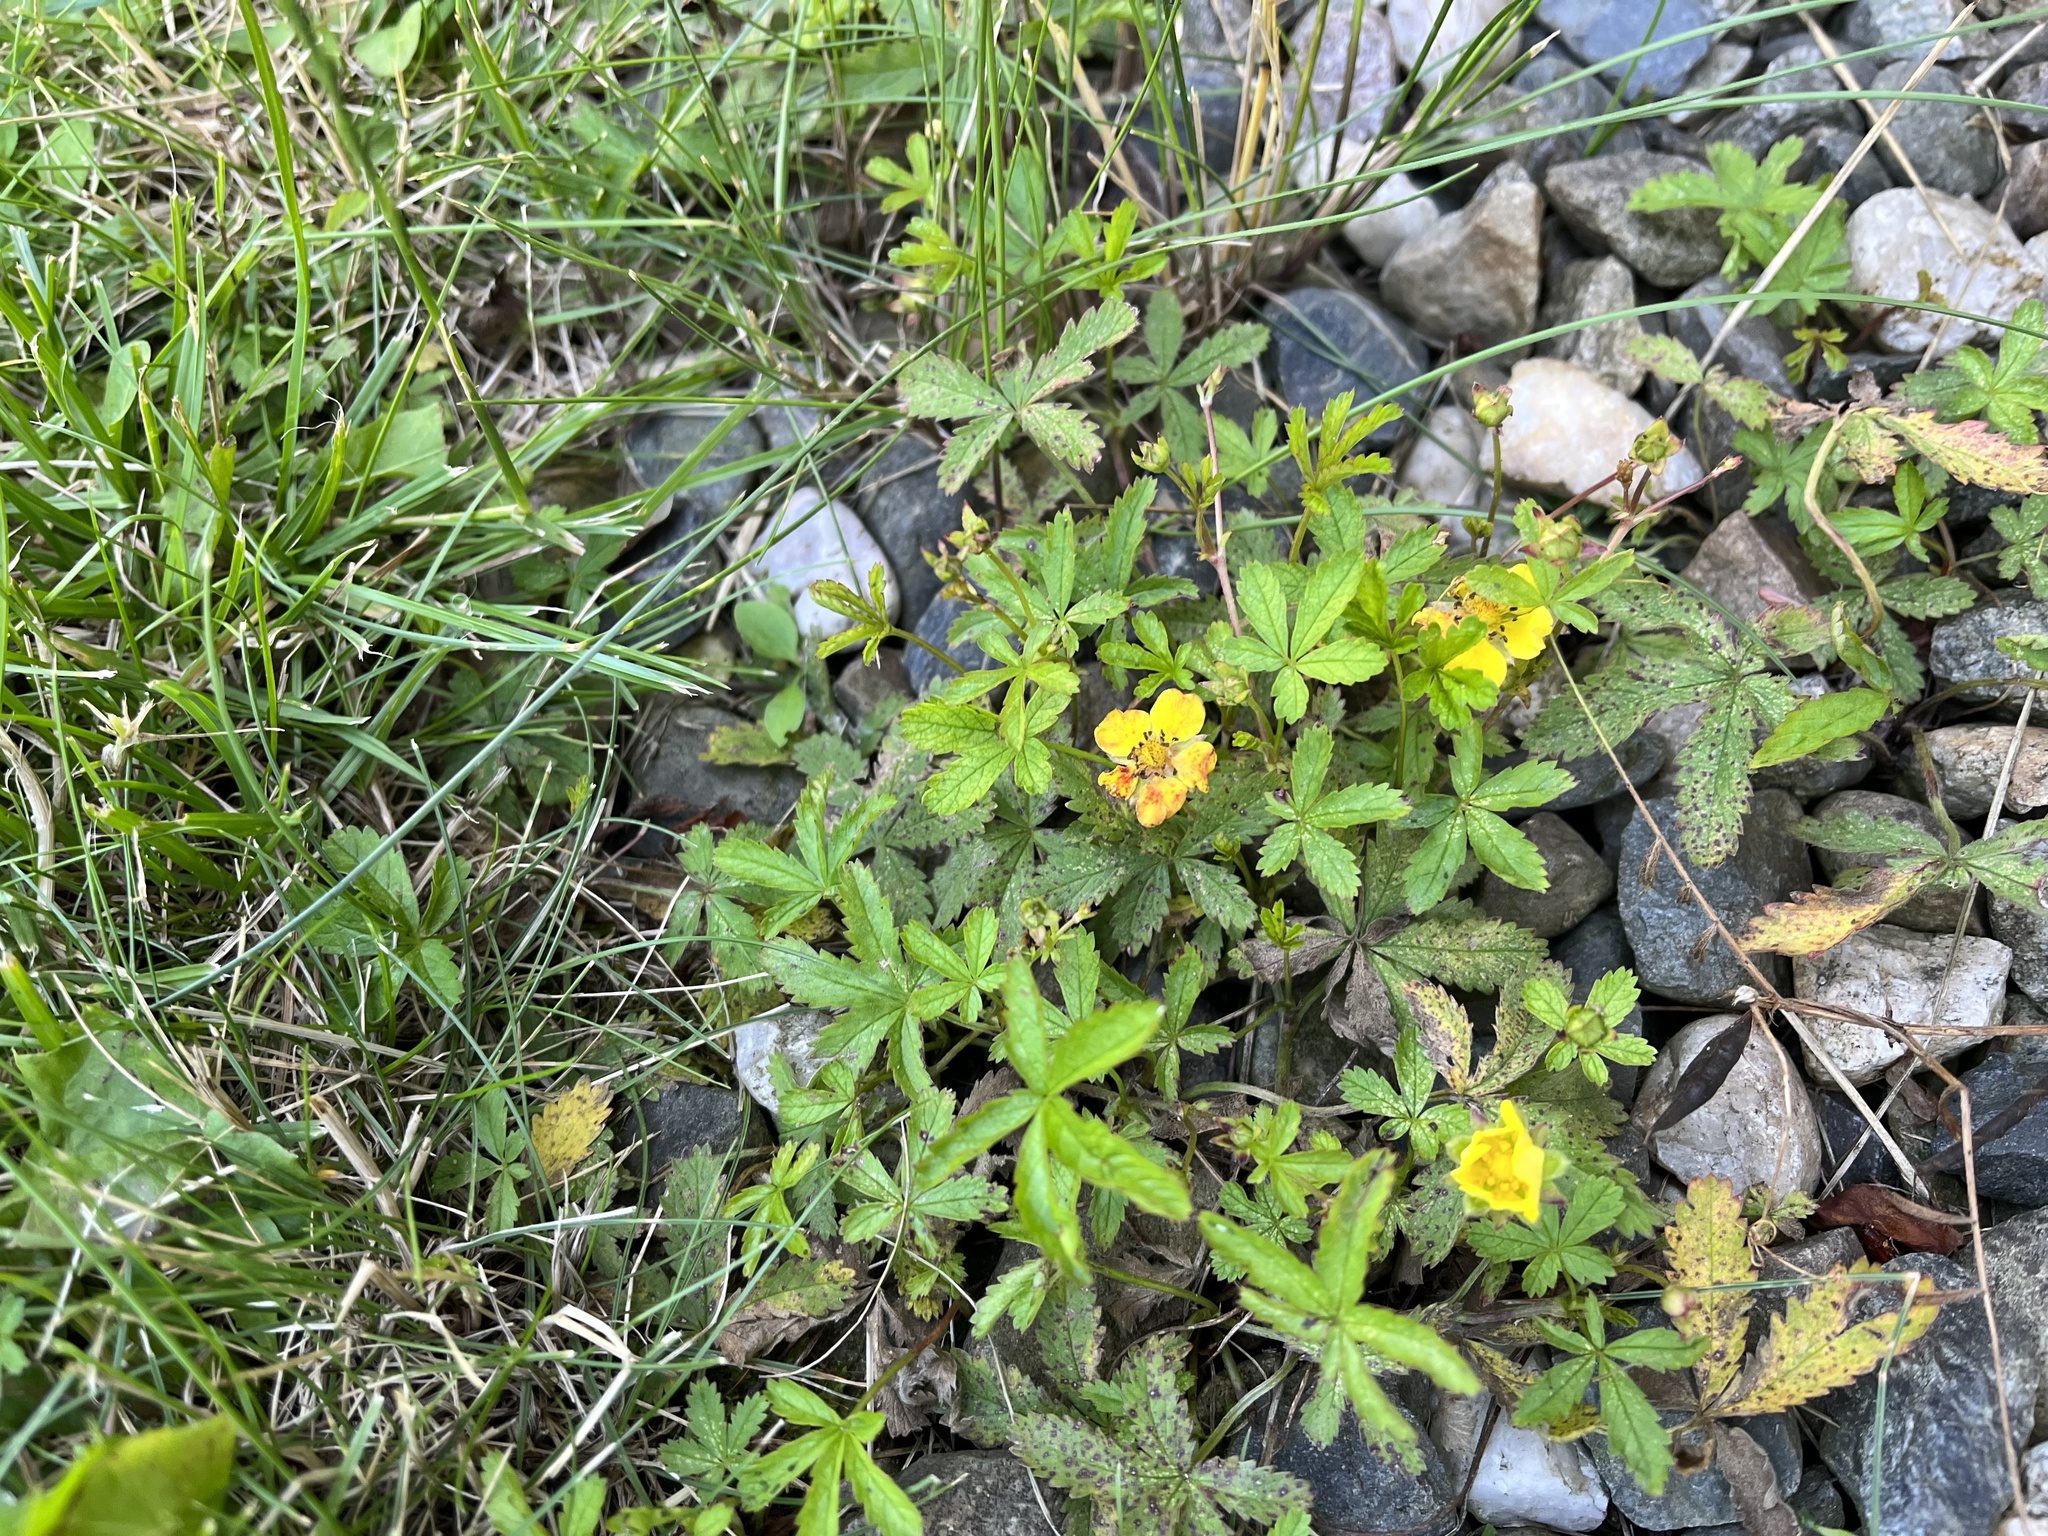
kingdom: Plantae
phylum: Tracheophyta
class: Magnoliopsida
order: Rosales
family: Rosaceae
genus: Potentilla
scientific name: Potentilla reptans
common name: Creeping cinquefoil
